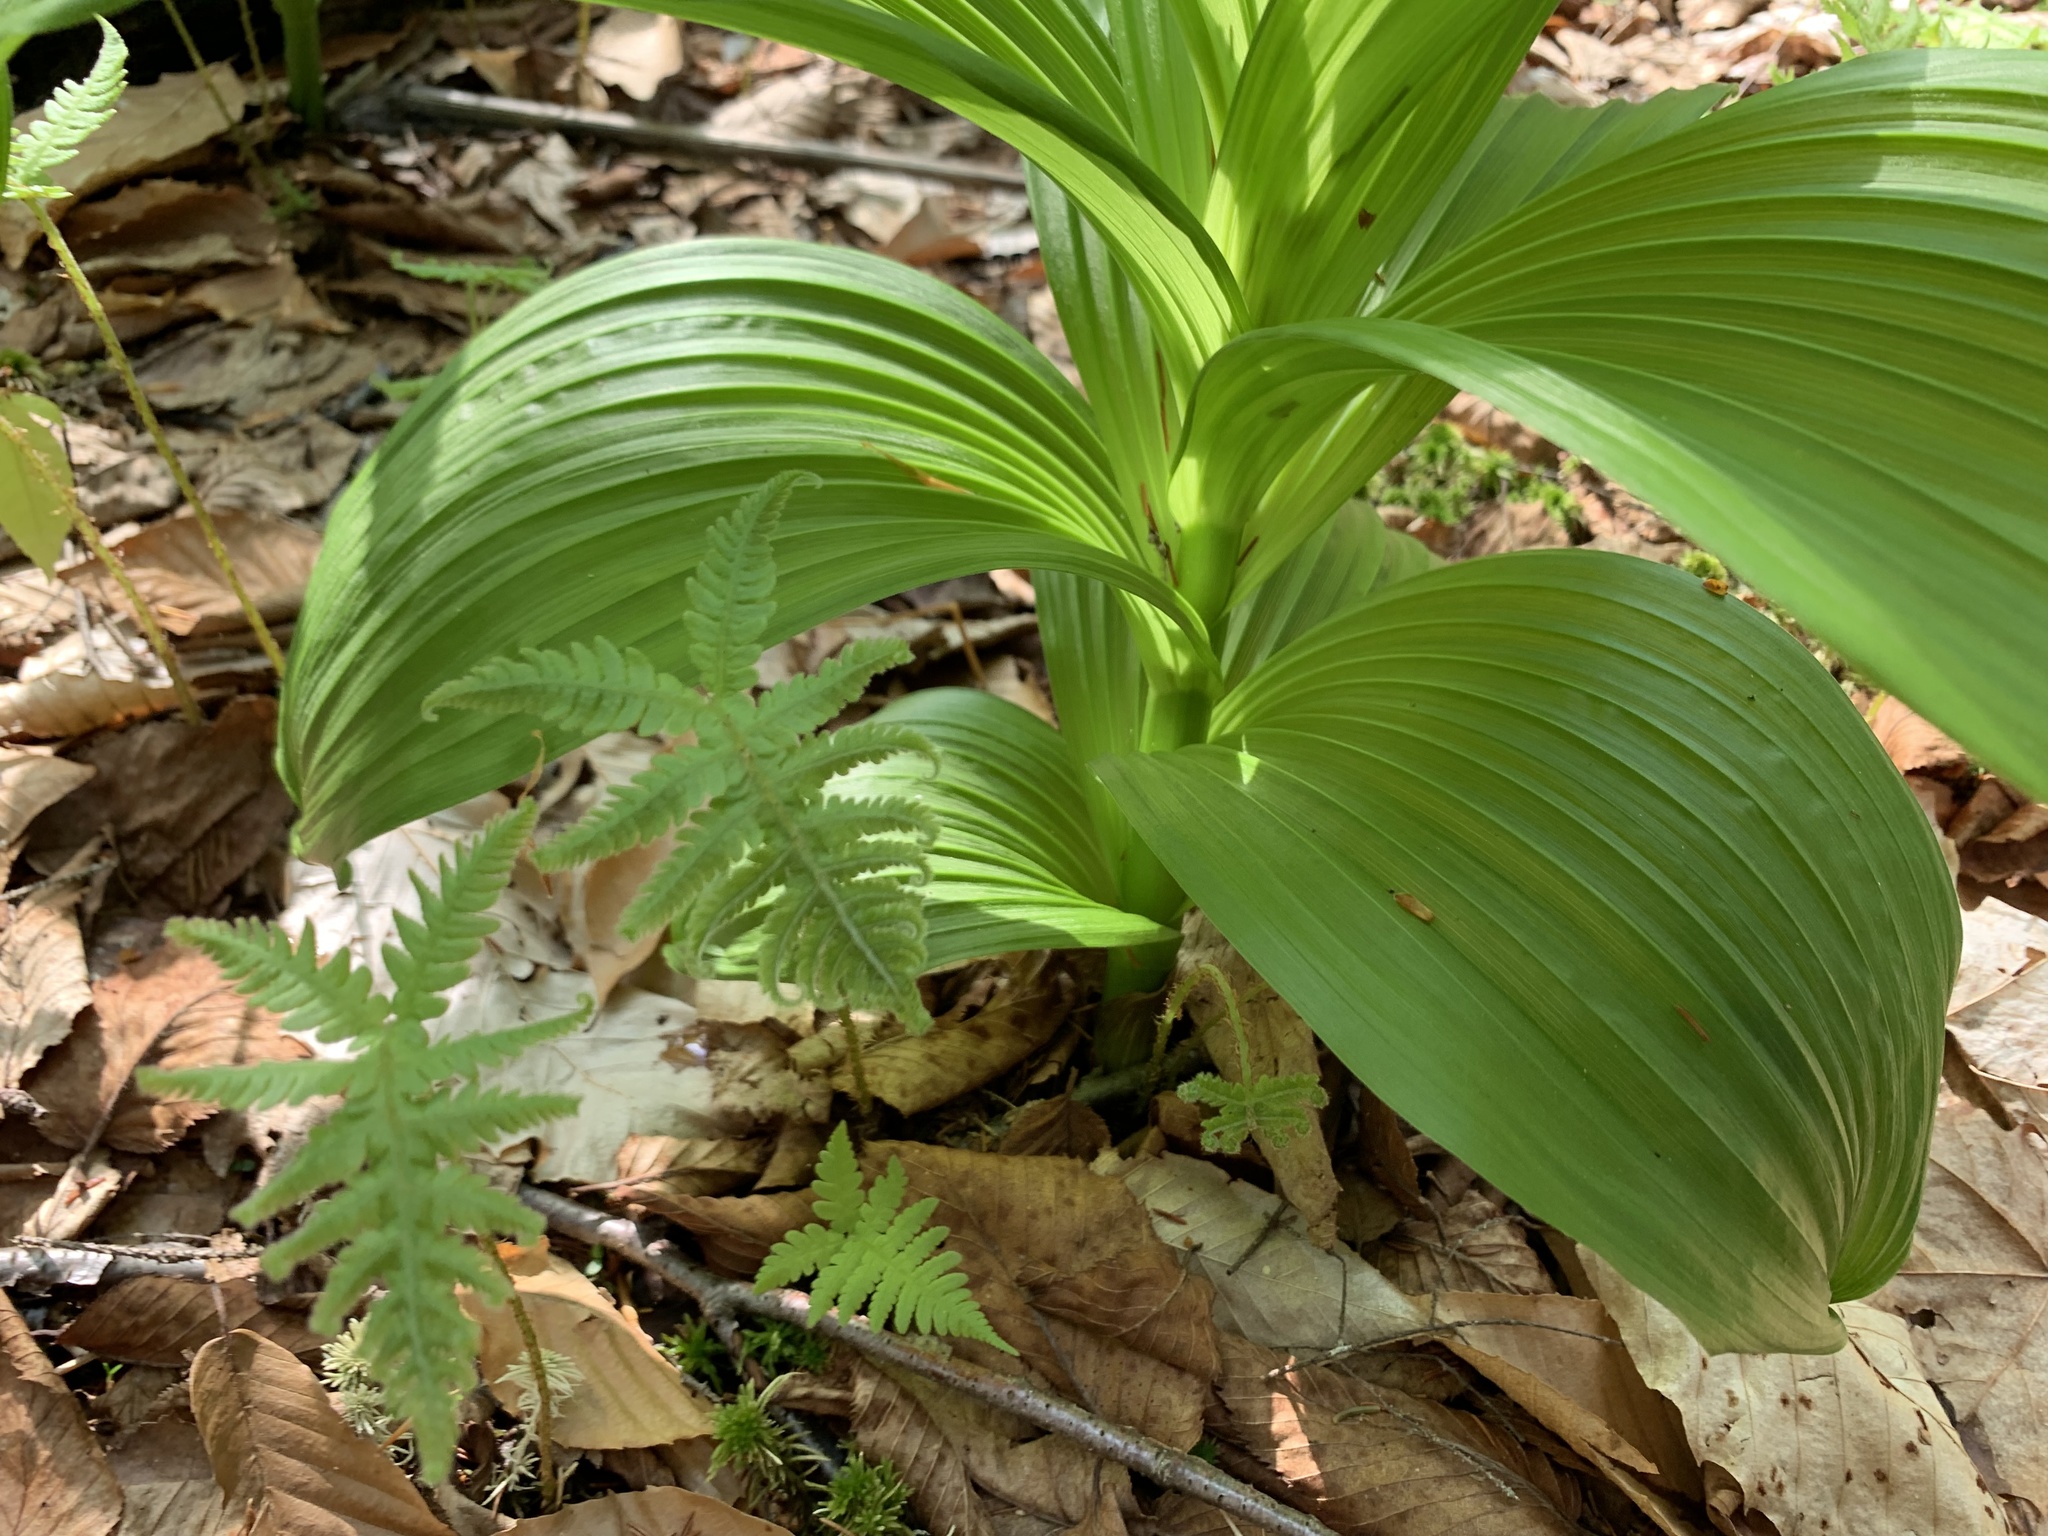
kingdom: Plantae
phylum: Tracheophyta
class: Liliopsida
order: Liliales
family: Melanthiaceae
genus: Veratrum
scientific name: Veratrum viride
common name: American false hellebore
